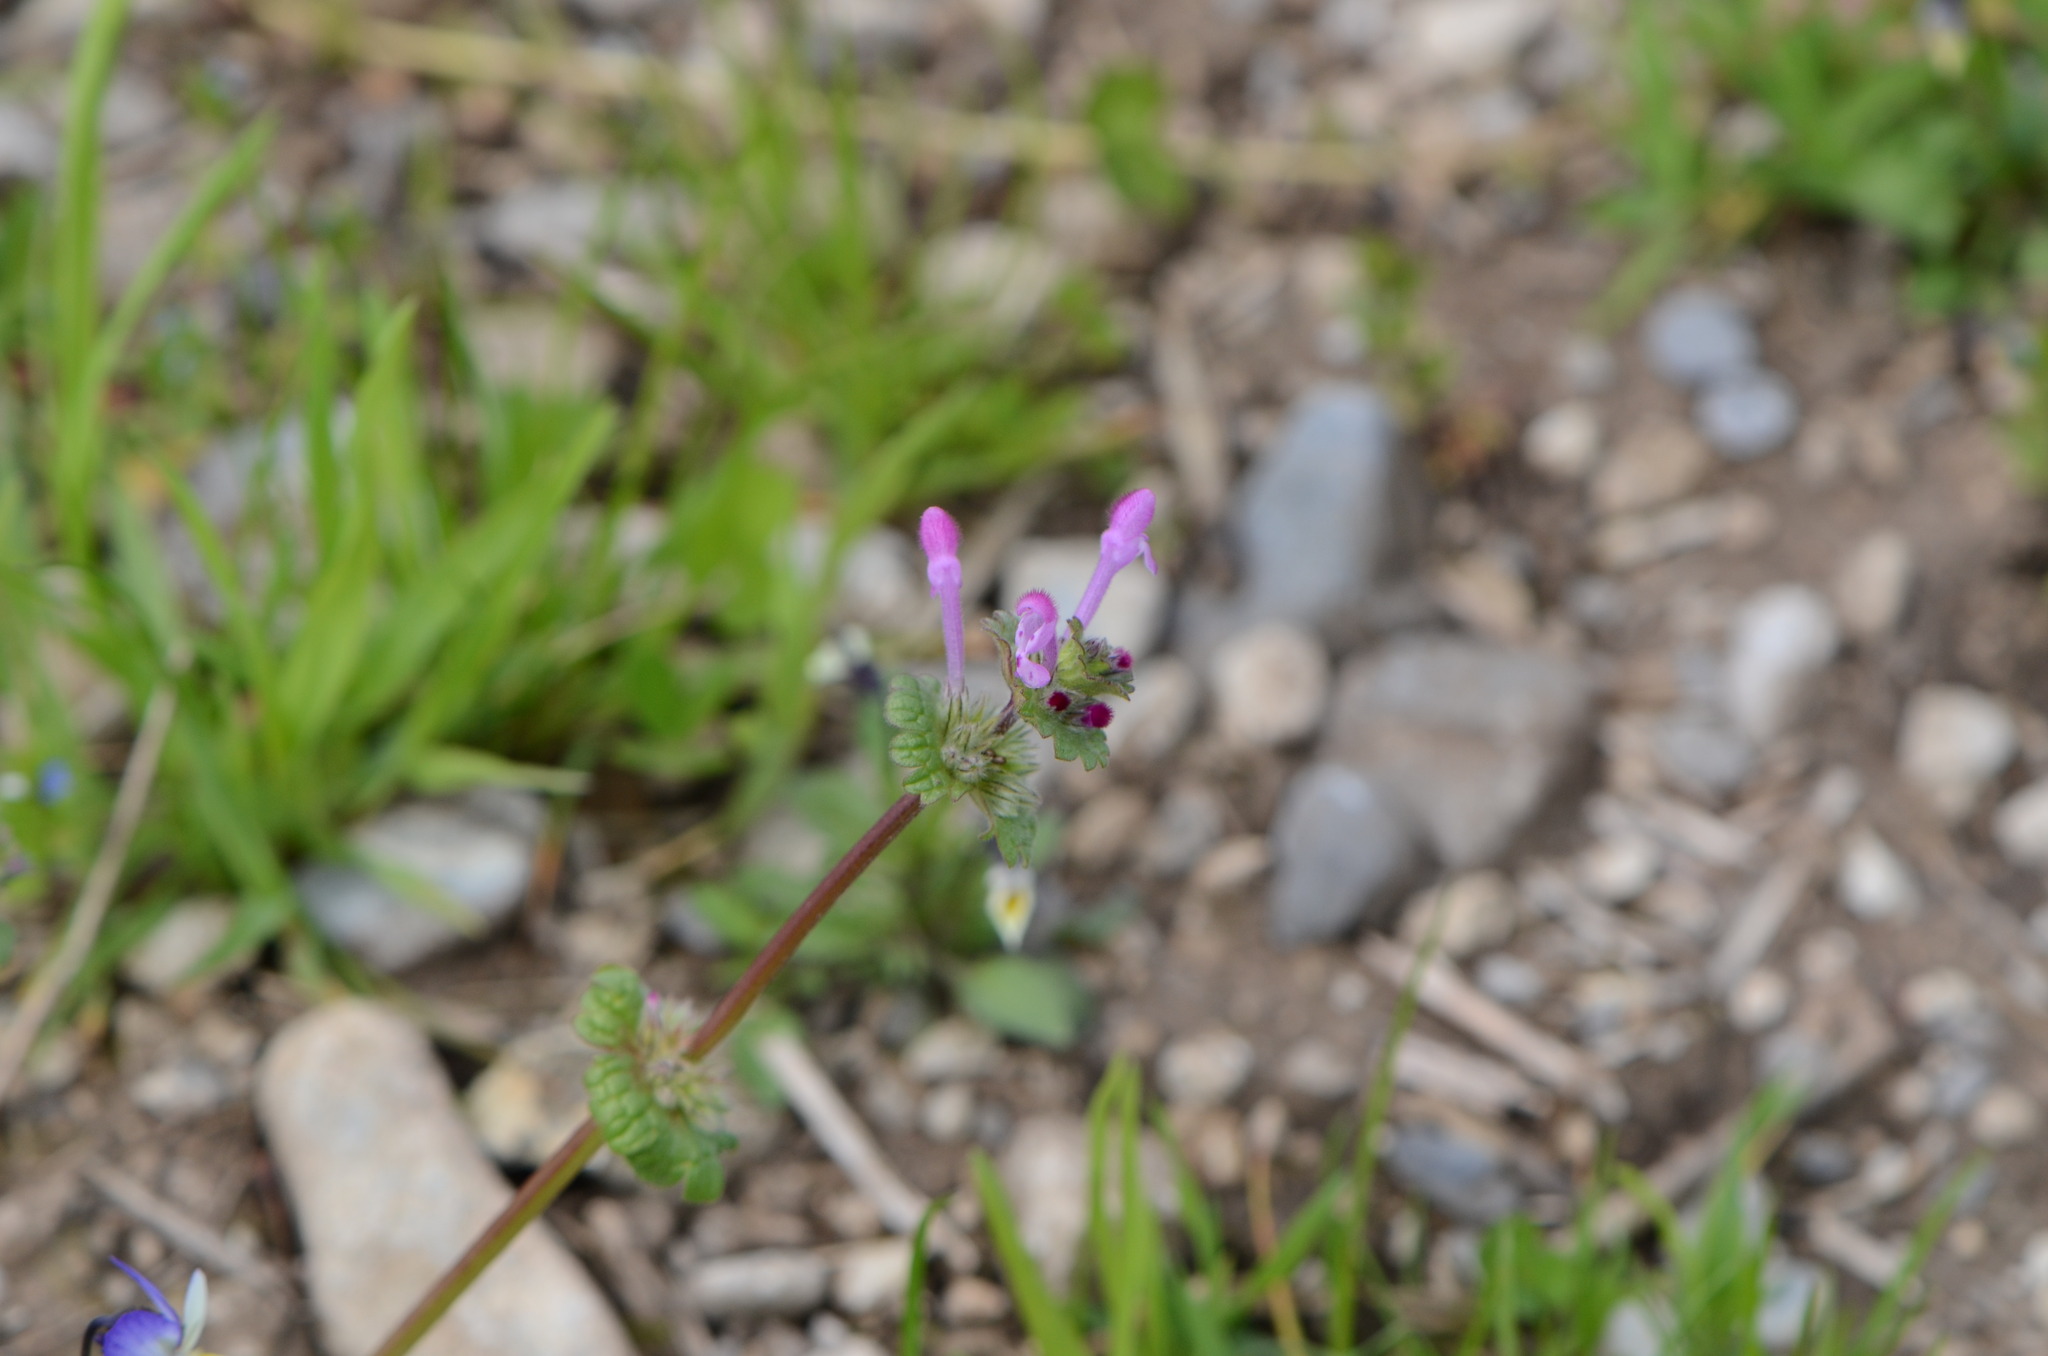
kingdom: Plantae
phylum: Tracheophyta
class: Magnoliopsida
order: Lamiales
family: Lamiaceae
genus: Lamium
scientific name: Lamium amplexicaule
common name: Henbit dead-nettle
